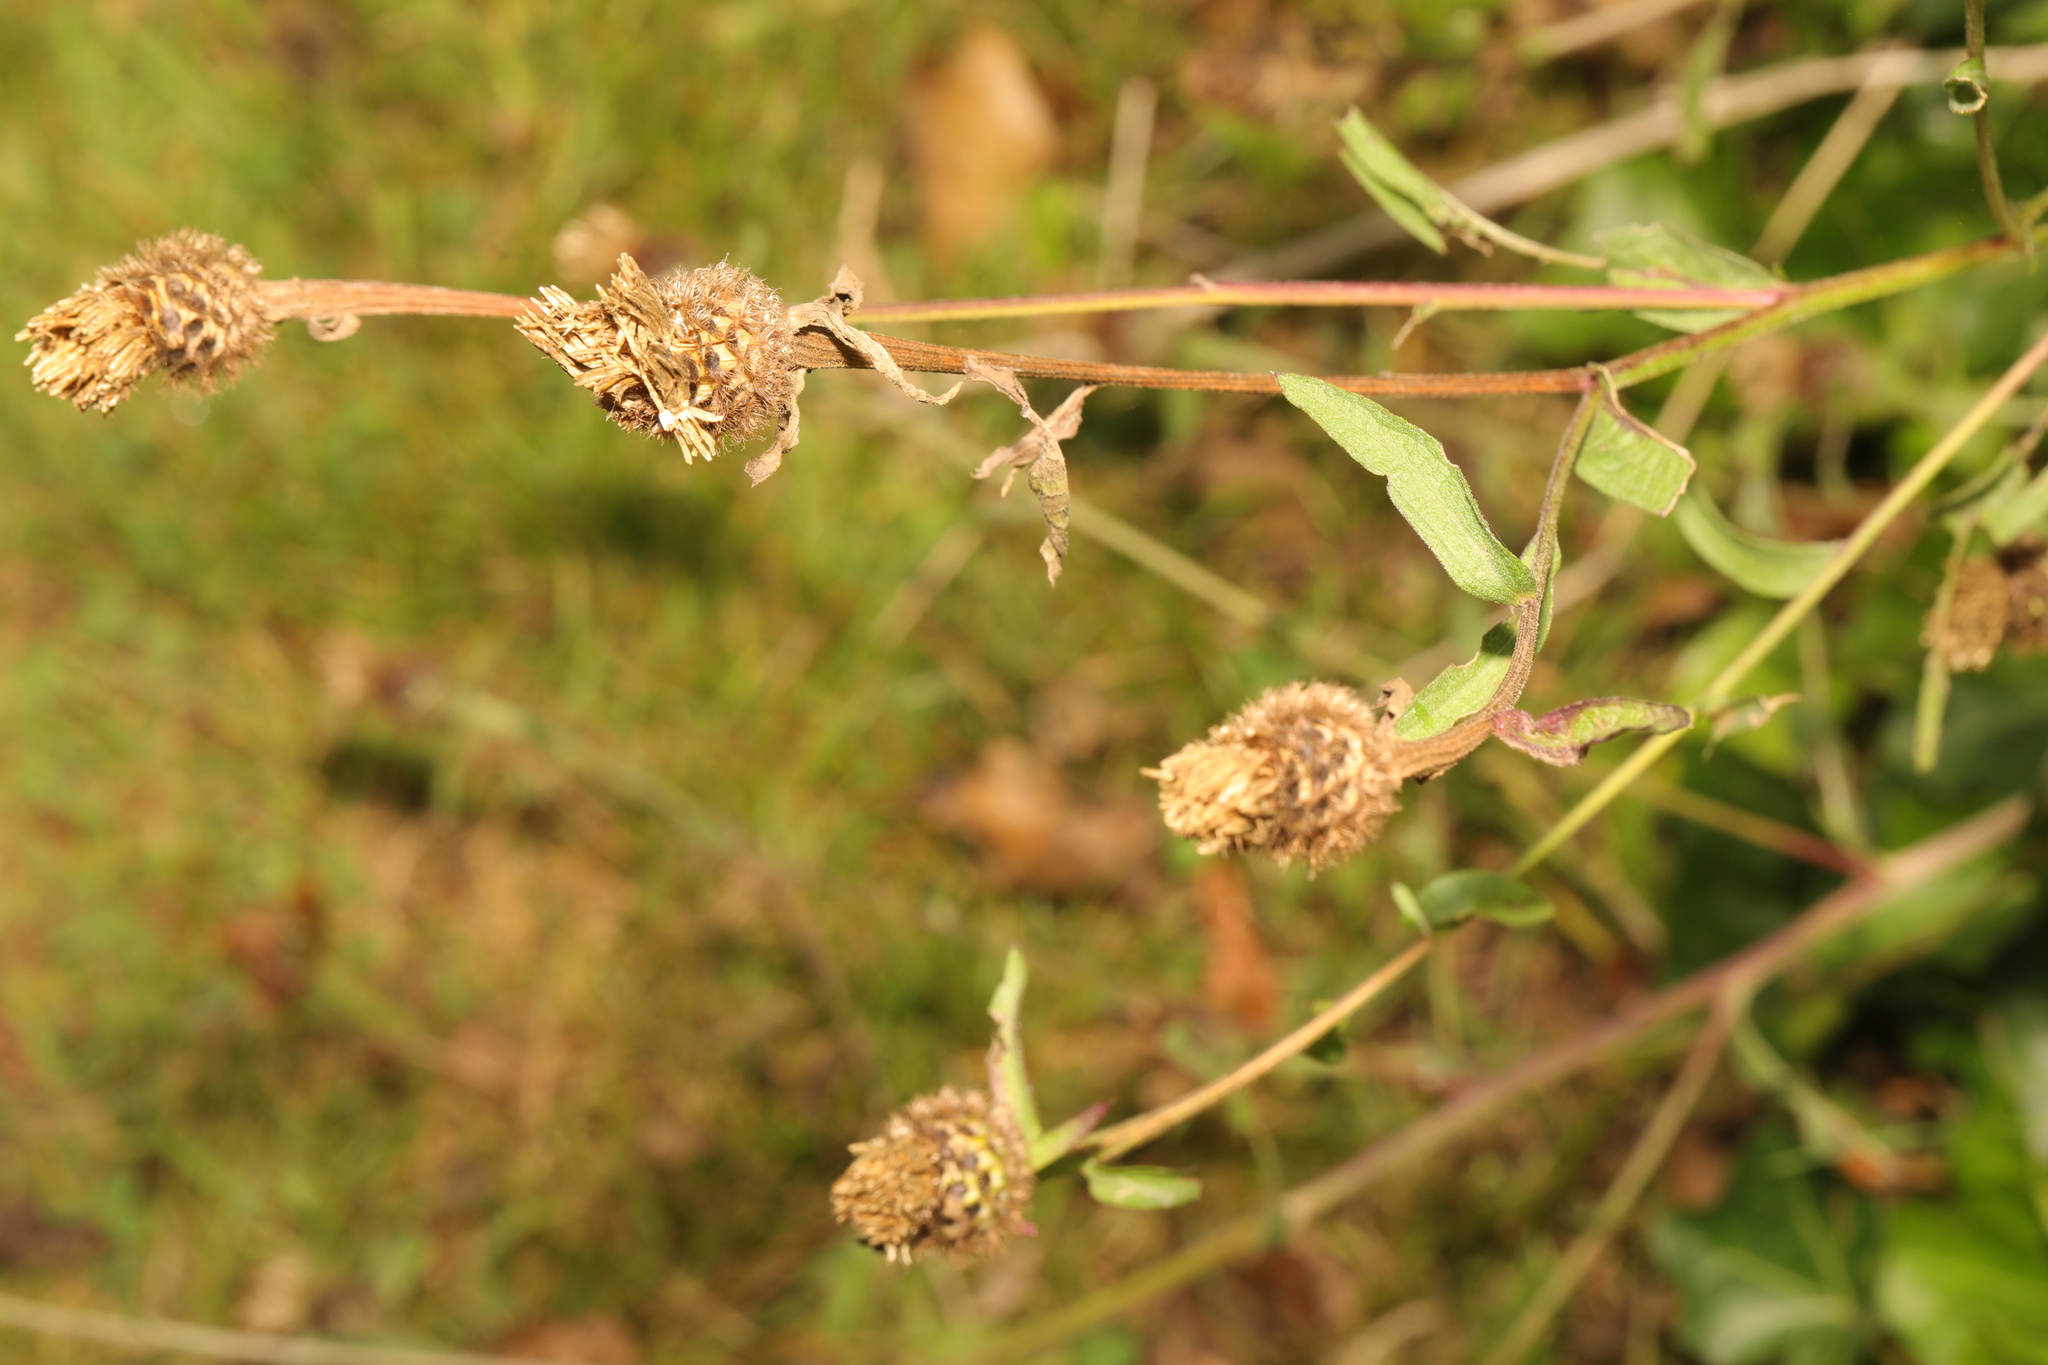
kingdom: Plantae
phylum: Tracheophyta
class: Magnoliopsida
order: Asterales
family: Asteraceae
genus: Centaurea
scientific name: Centaurea nigra
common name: Lesser knapweed
